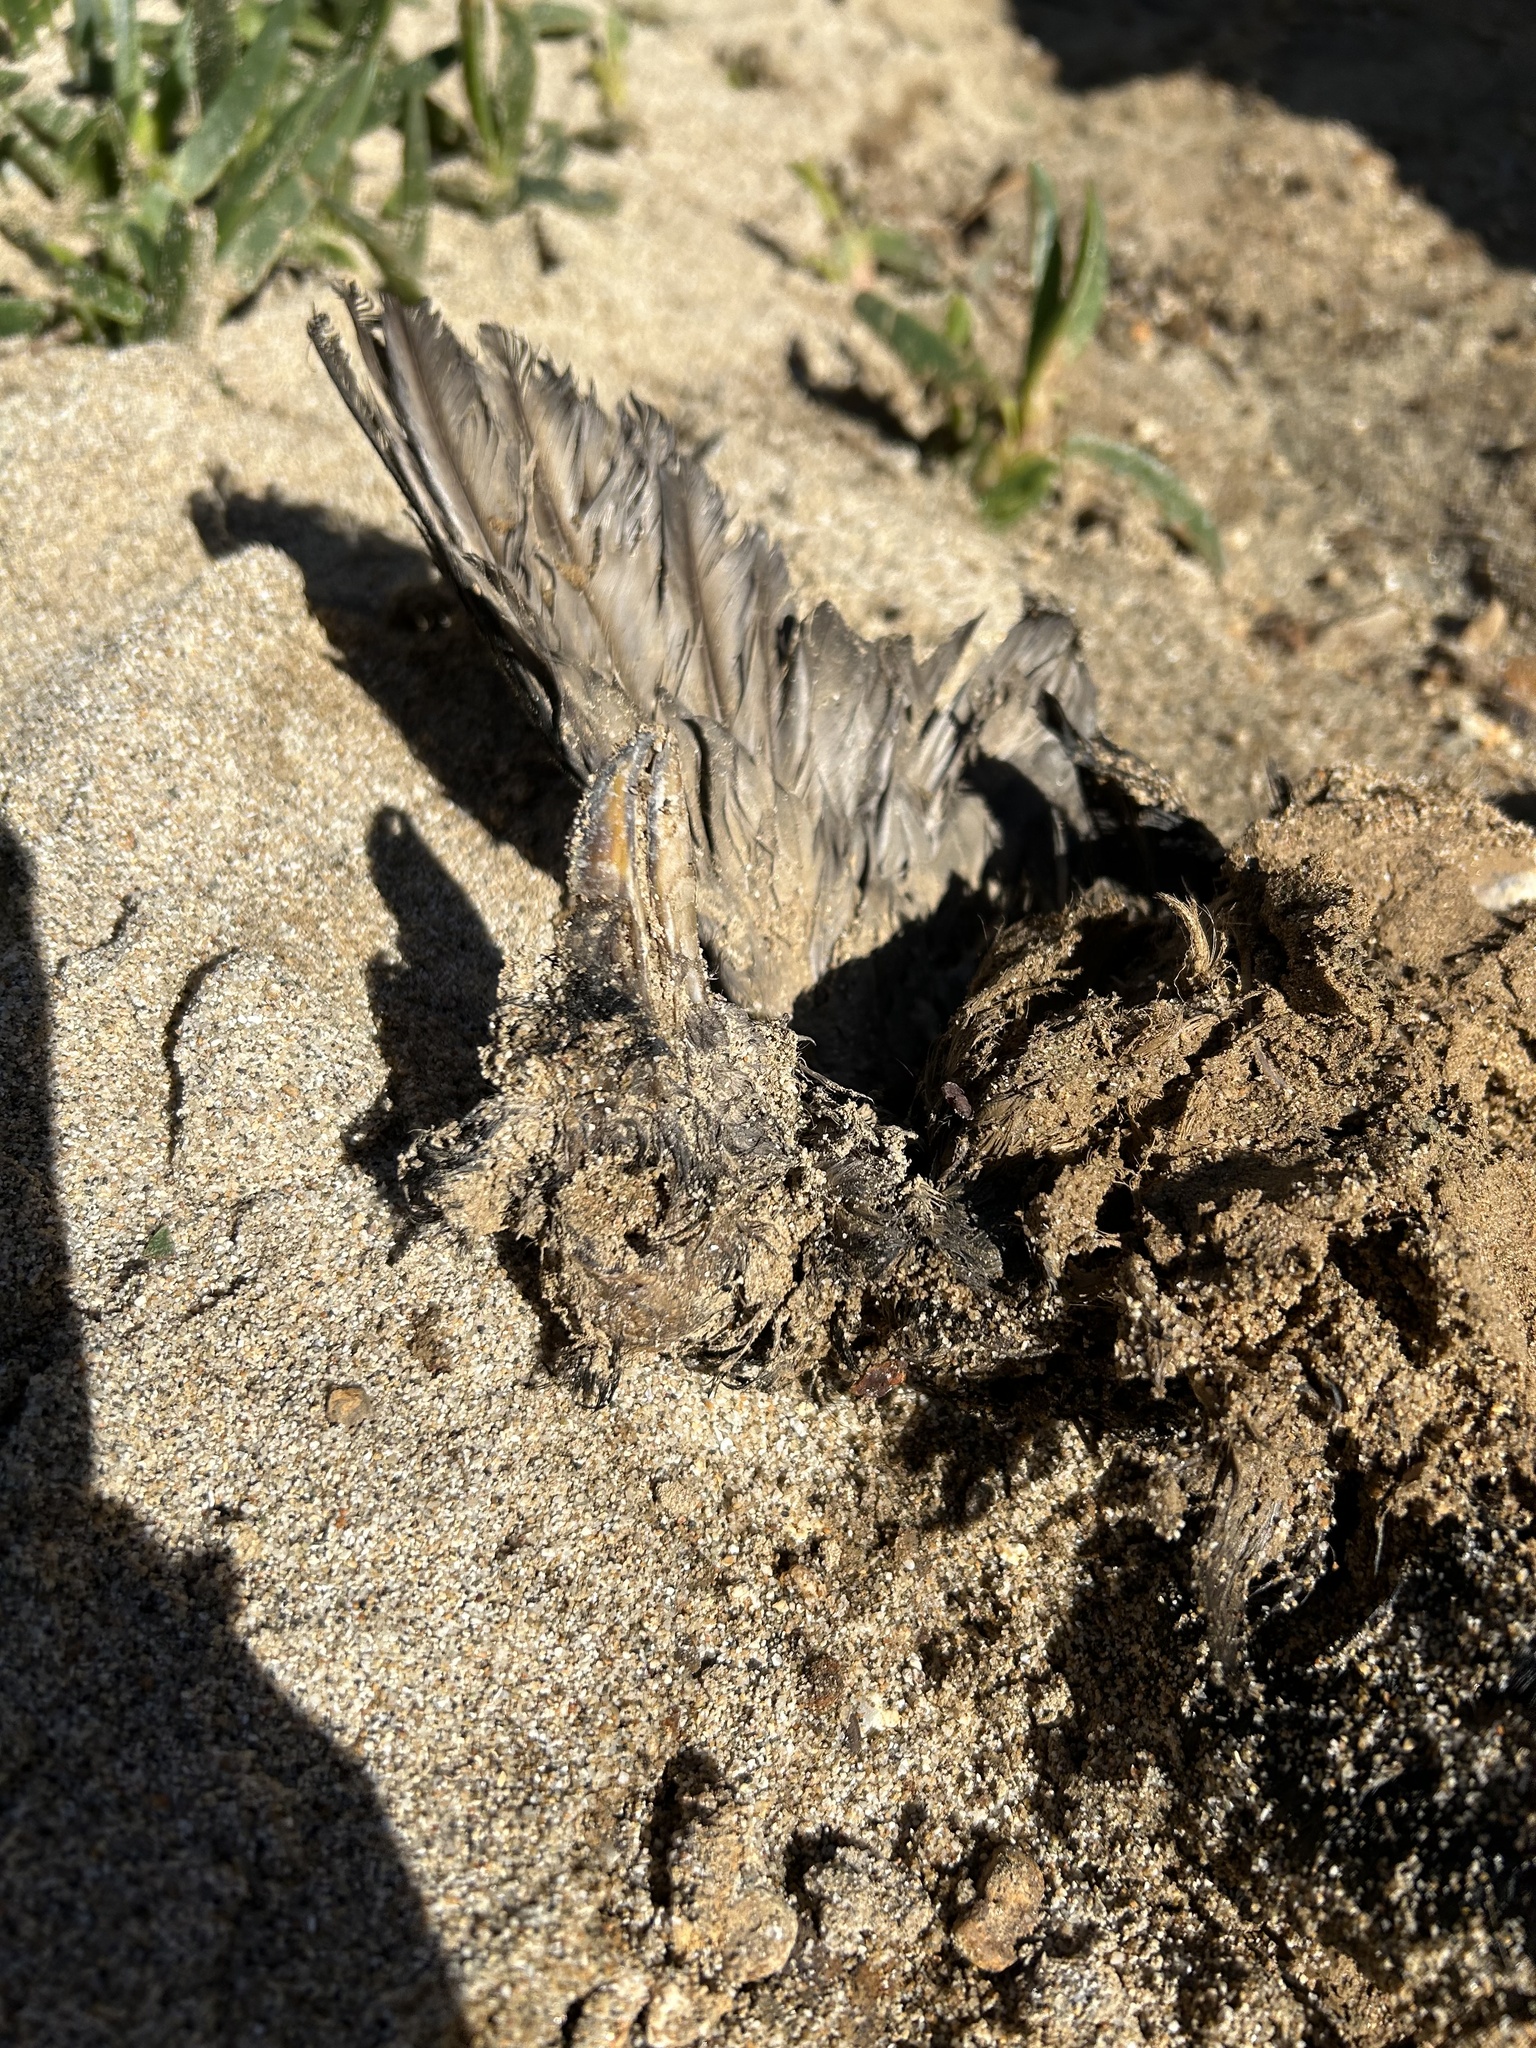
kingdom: Animalia
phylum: Chordata
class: Aves
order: Charadriiformes
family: Alcidae
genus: Cerorhinca
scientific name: Cerorhinca monocerata
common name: Rhinoceros auklet
